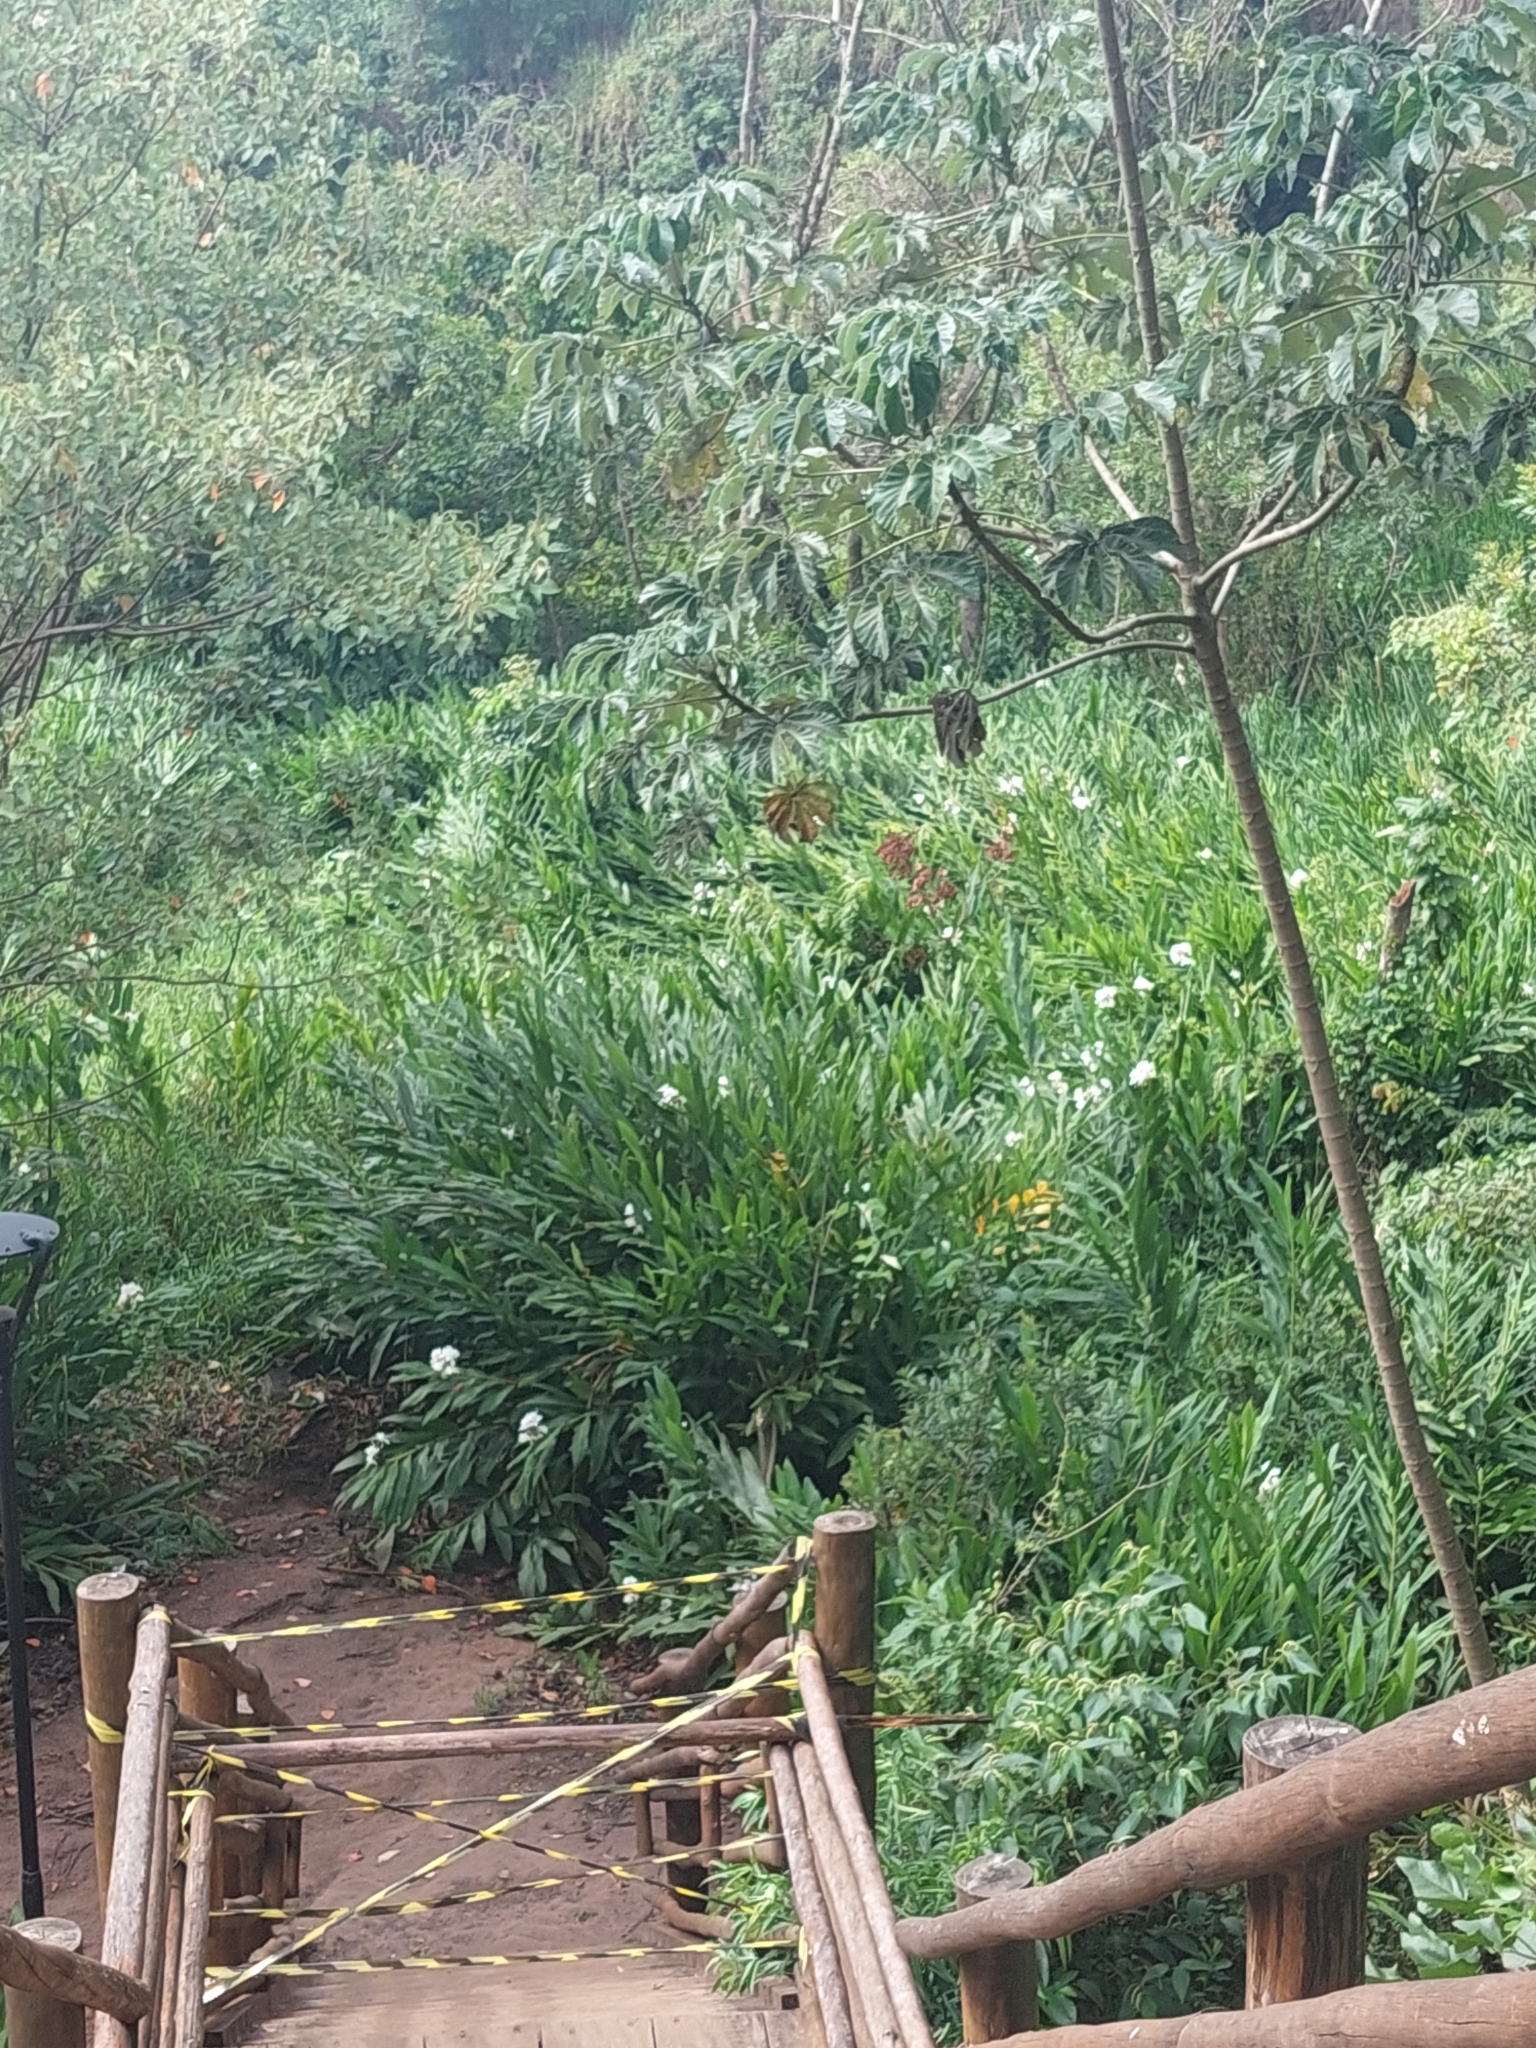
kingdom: Plantae
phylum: Tracheophyta
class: Liliopsida
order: Zingiberales
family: Zingiberaceae
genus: Hedychium
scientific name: Hedychium coronarium
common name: White garland-lily
